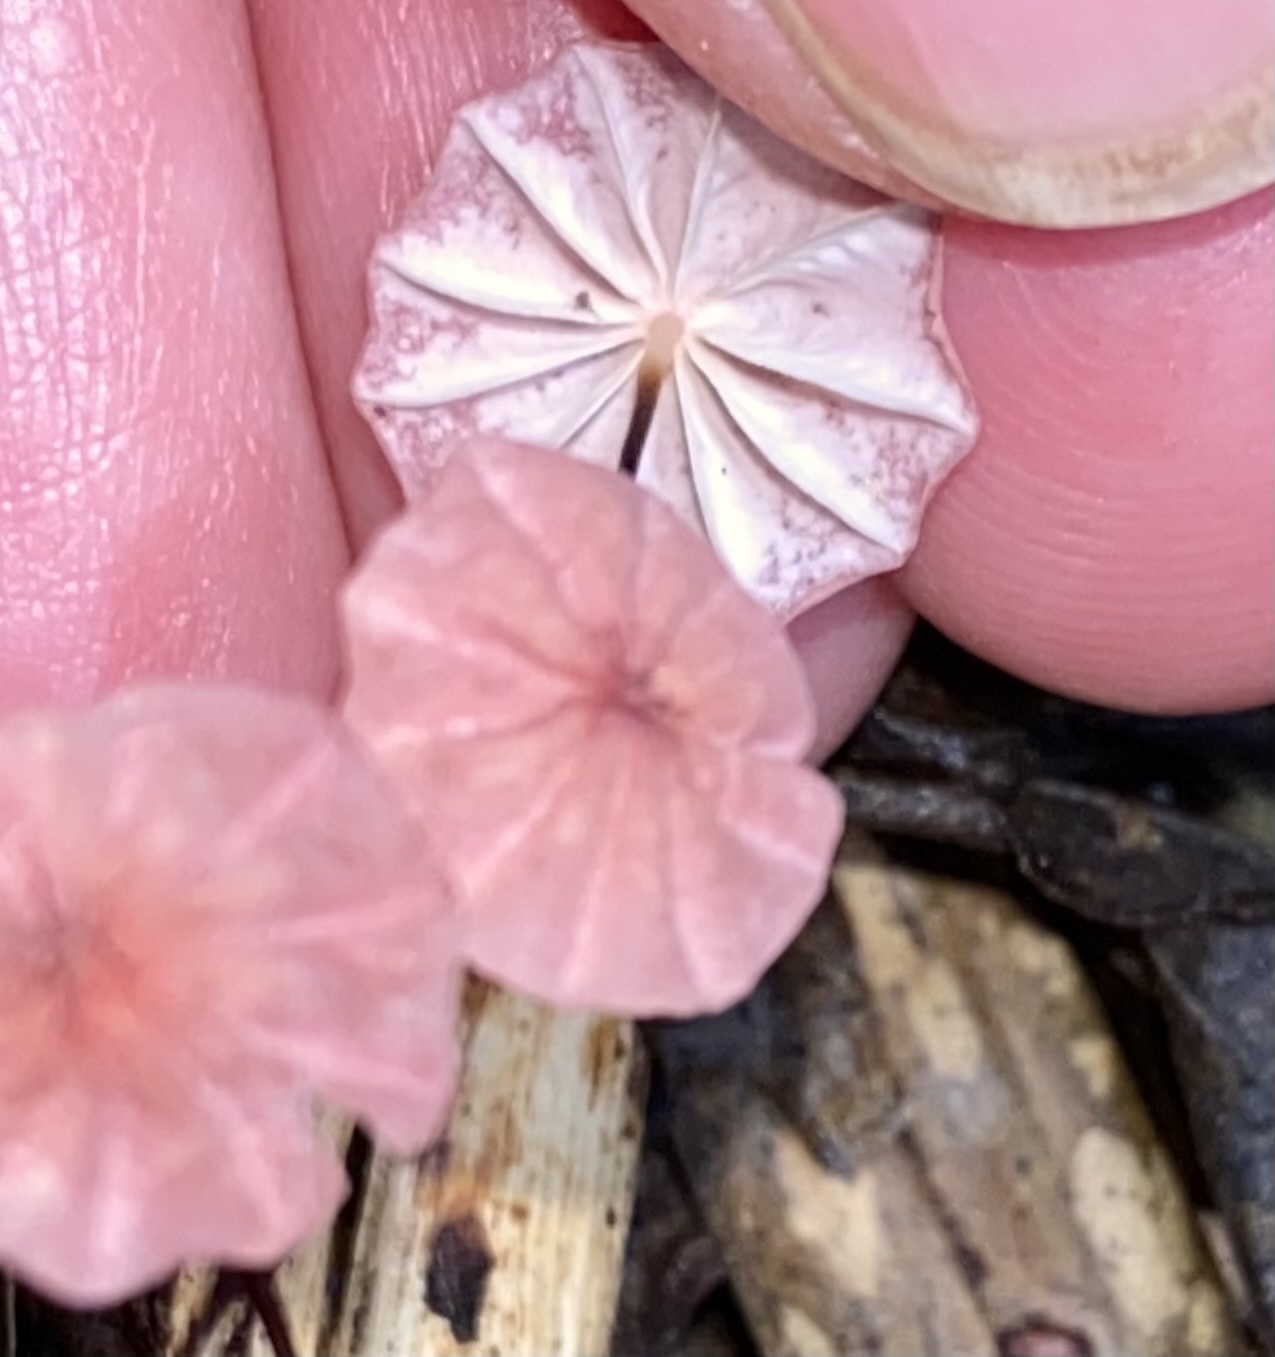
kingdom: Fungi
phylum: Basidiomycota
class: Agaricomycetes
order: Agaricales
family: Marasmiaceae
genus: Marasmius
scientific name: Marasmius haematocephalus
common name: Purple pinwheel
